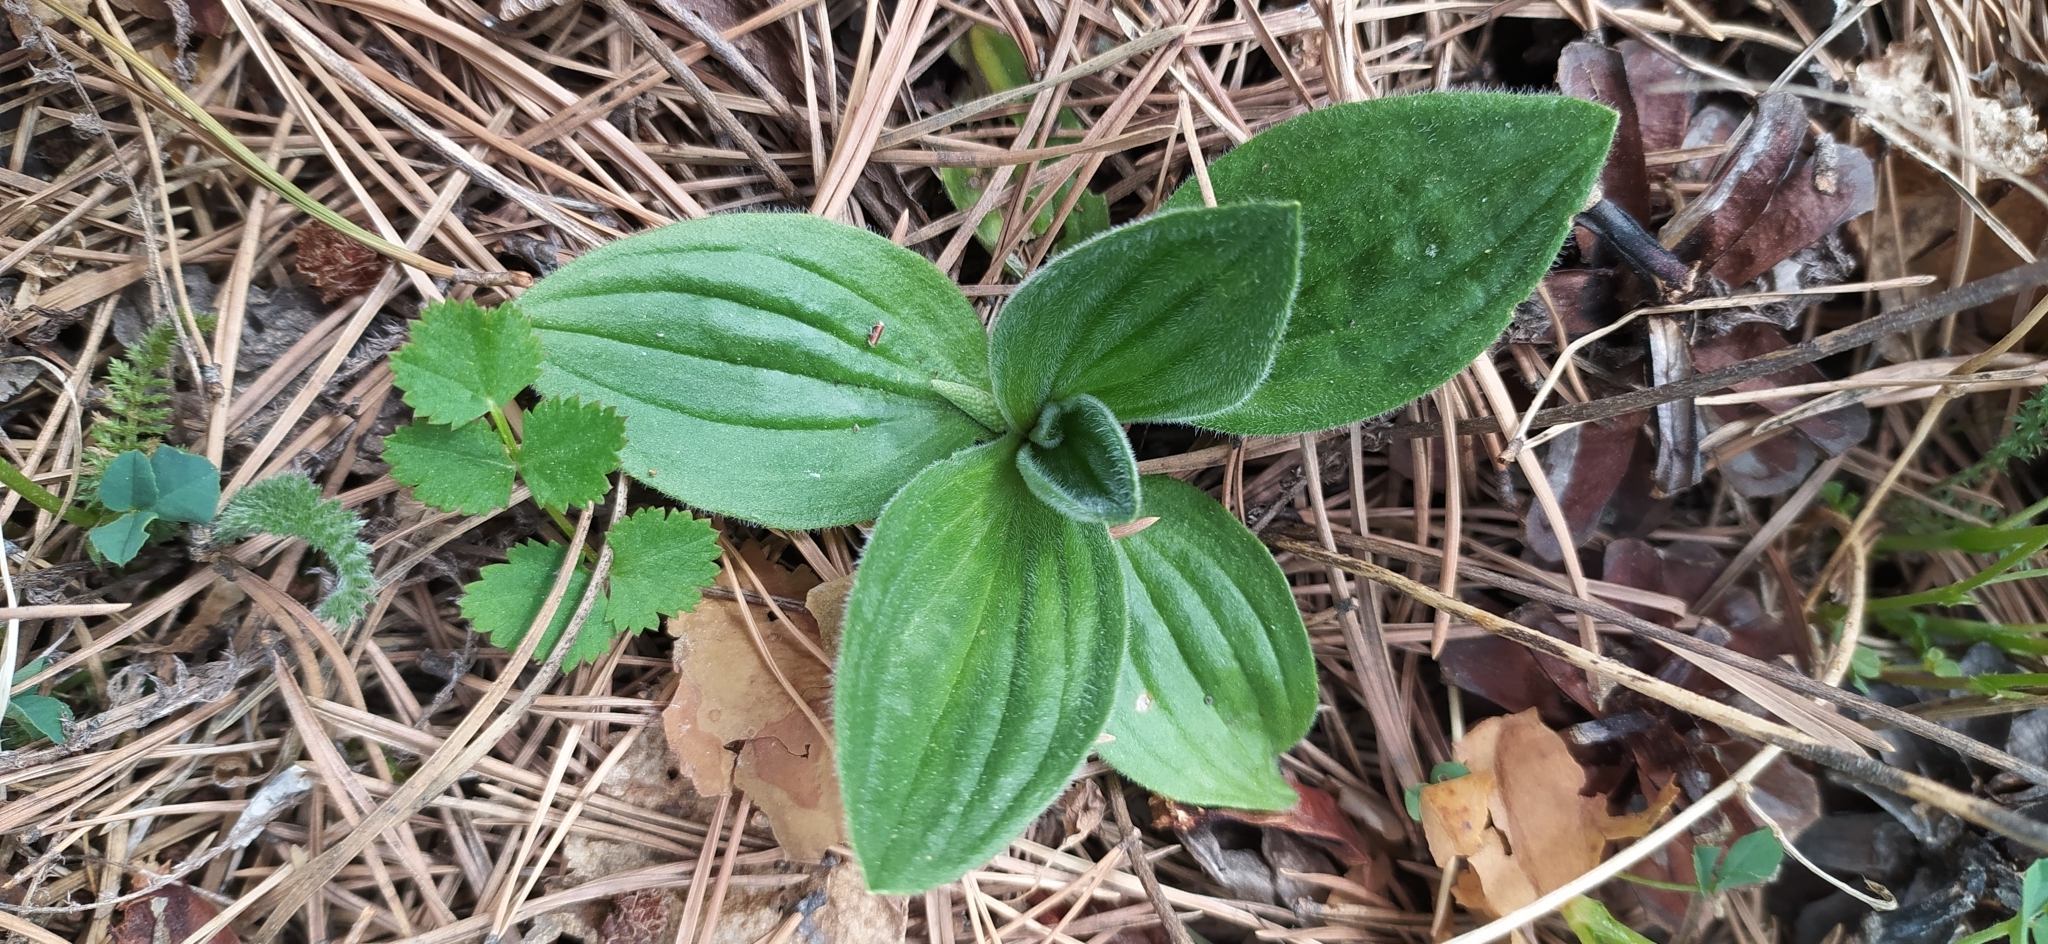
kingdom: Plantae
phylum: Tracheophyta
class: Magnoliopsida
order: Lamiales
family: Plantaginaceae
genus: Plantago
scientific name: Plantago media
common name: Hoary plantain
